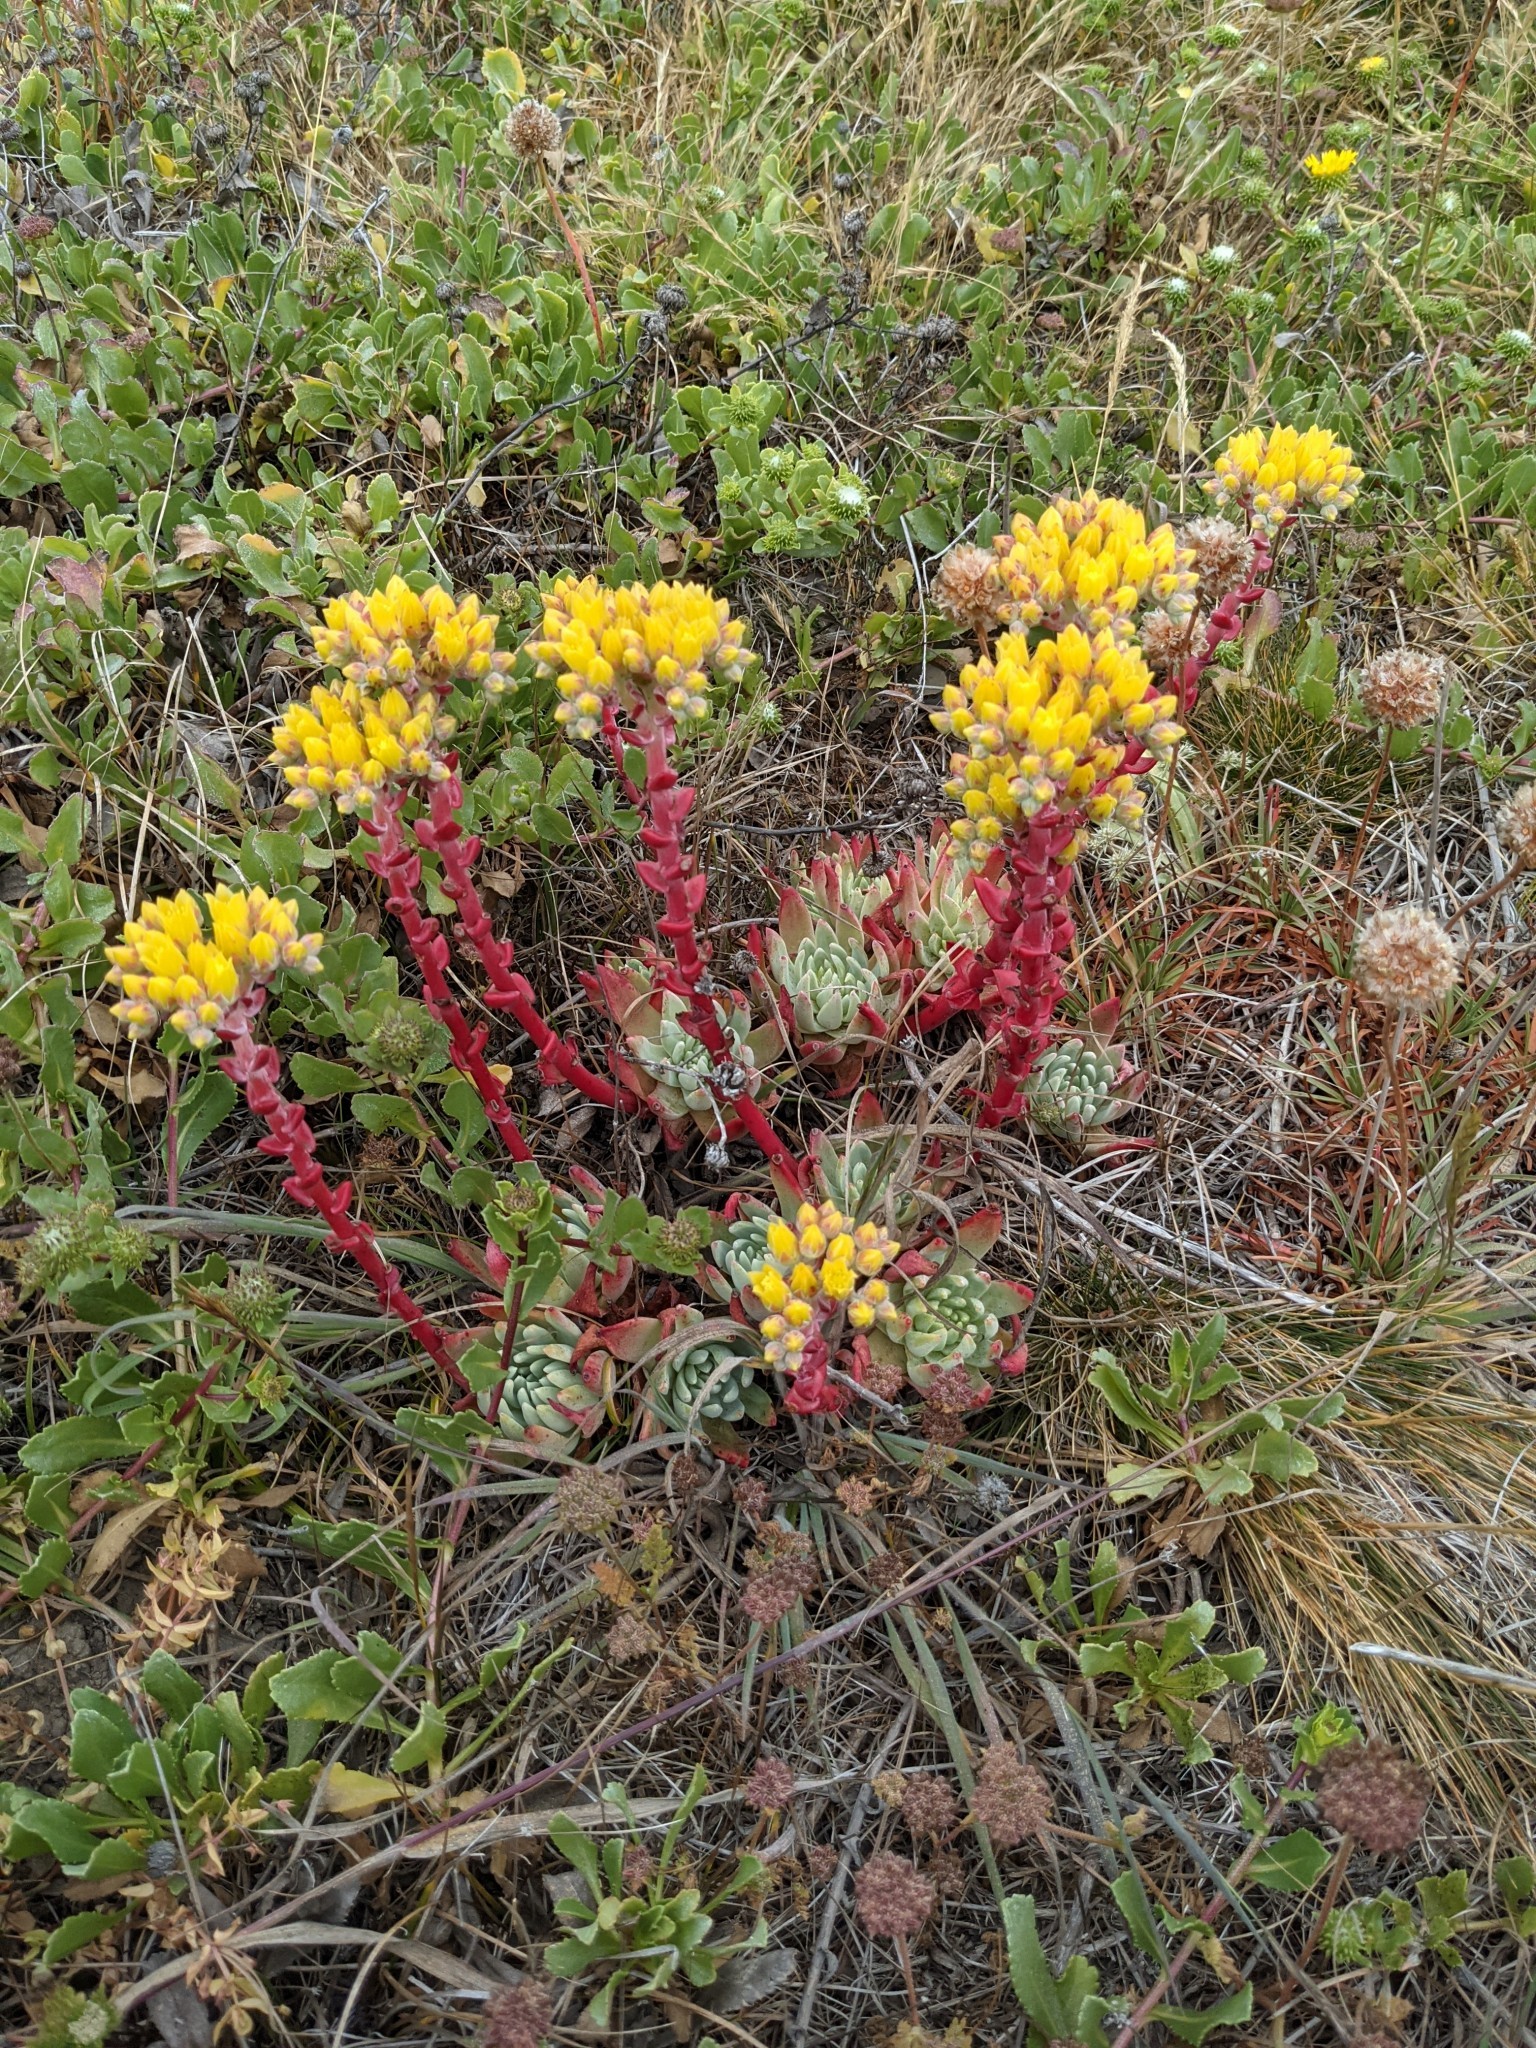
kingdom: Plantae
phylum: Tracheophyta
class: Magnoliopsida
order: Saxifragales
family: Crassulaceae
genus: Dudleya
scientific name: Dudleya caespitosa
